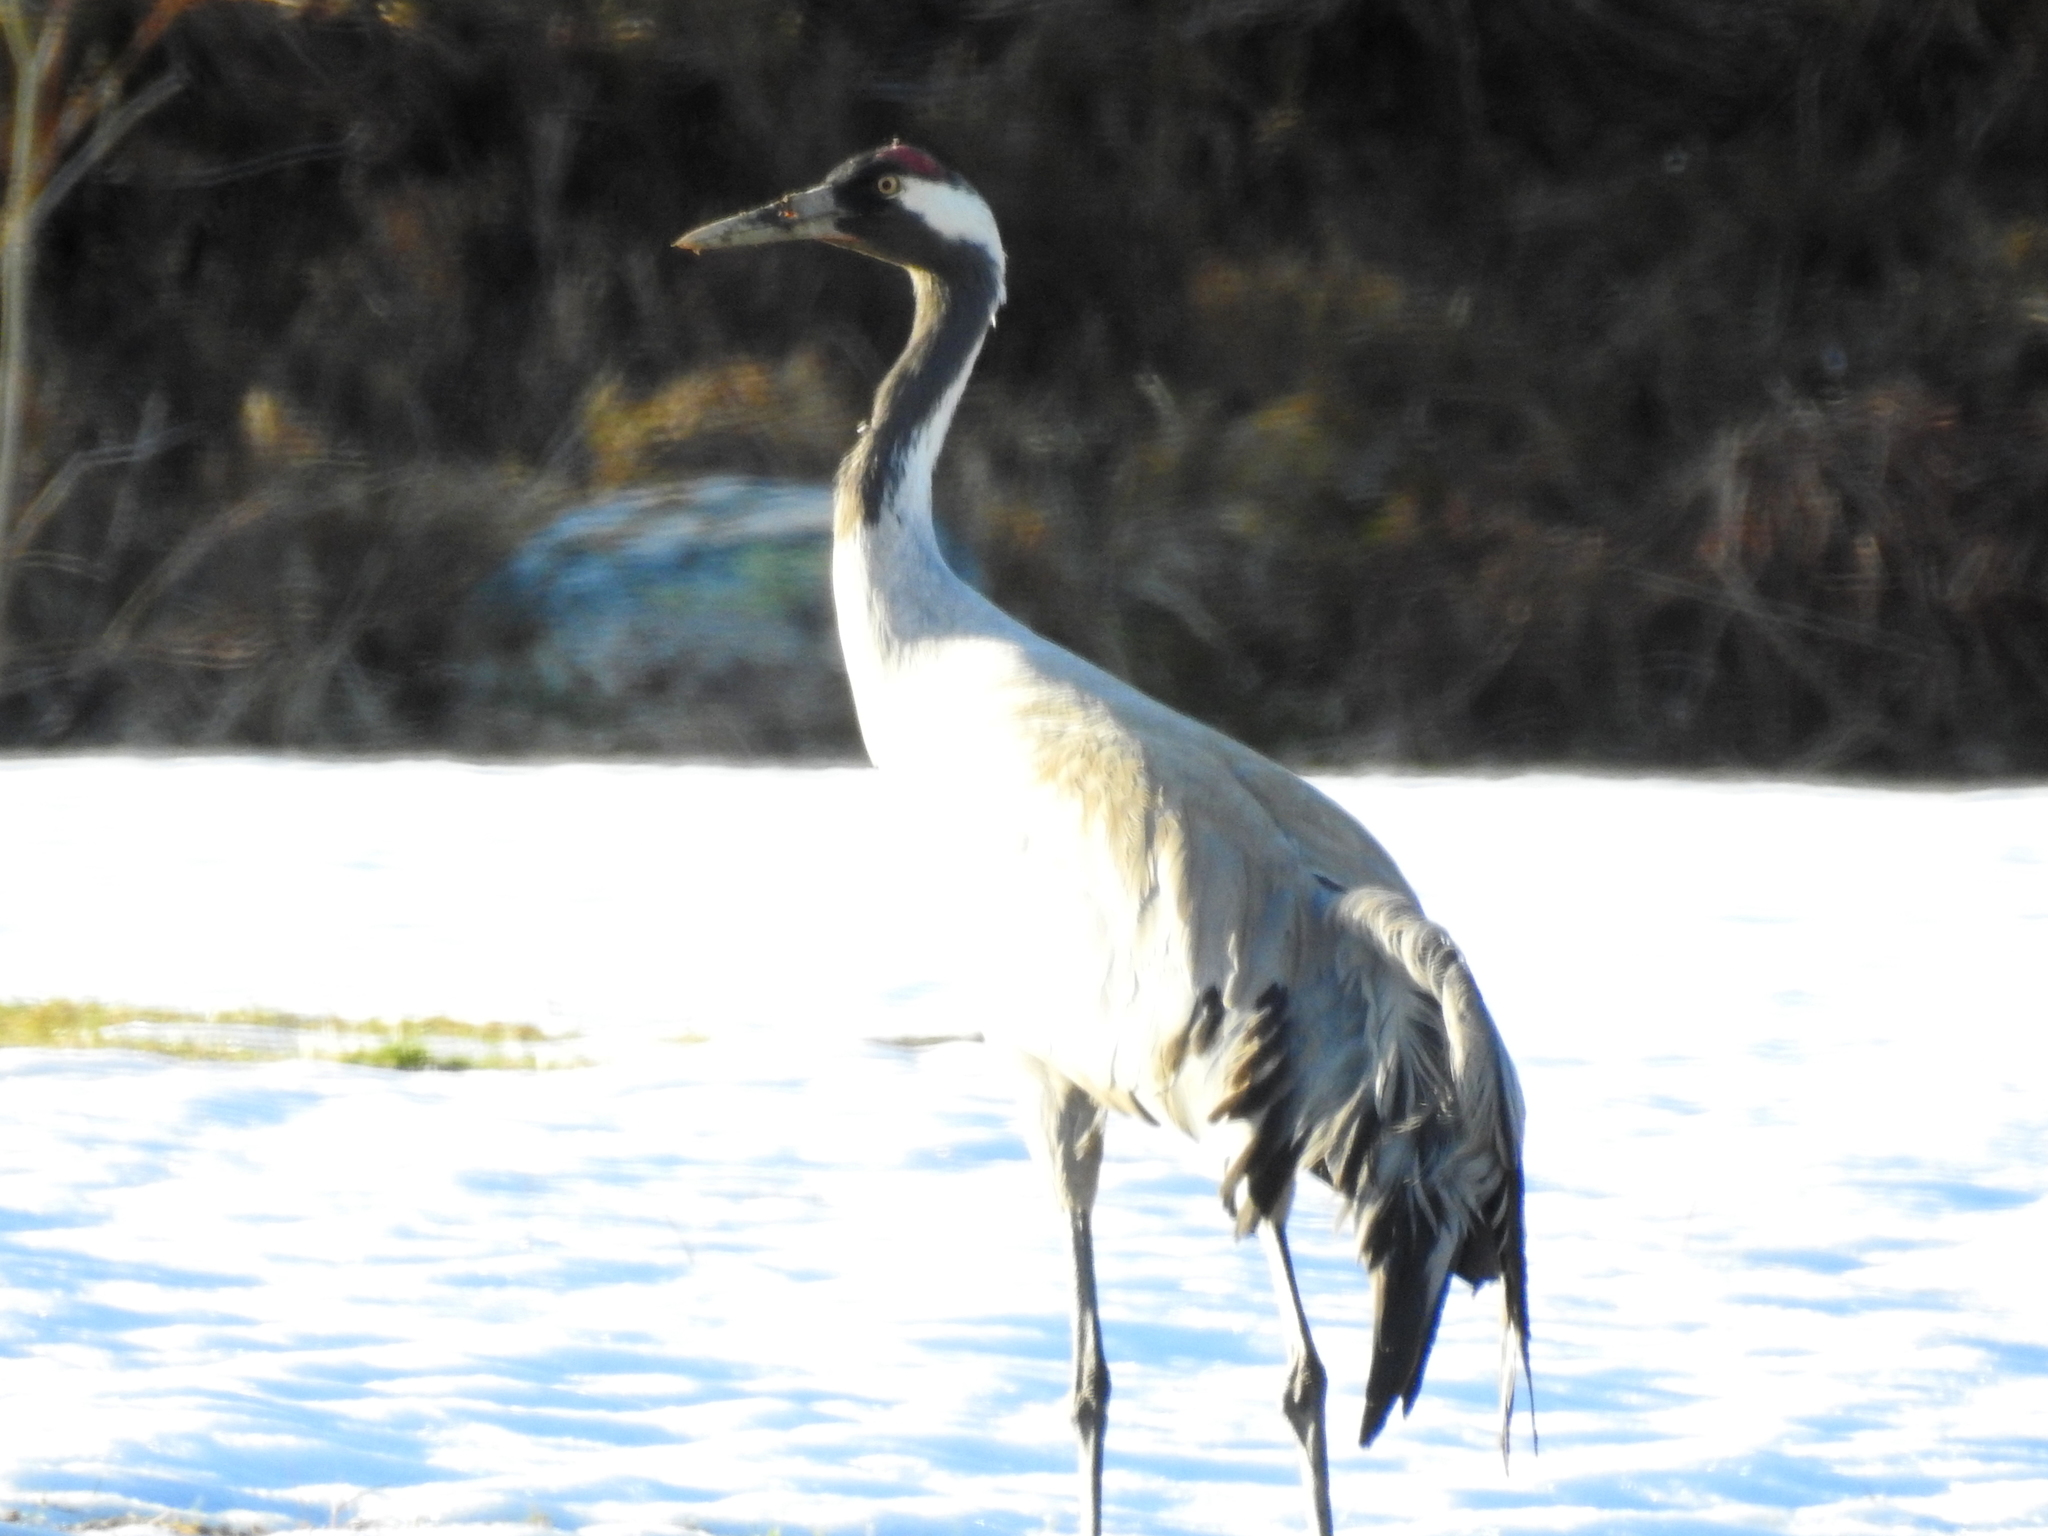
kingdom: Animalia
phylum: Chordata
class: Aves
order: Gruiformes
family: Gruidae
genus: Grus
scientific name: Grus grus
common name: Common crane
